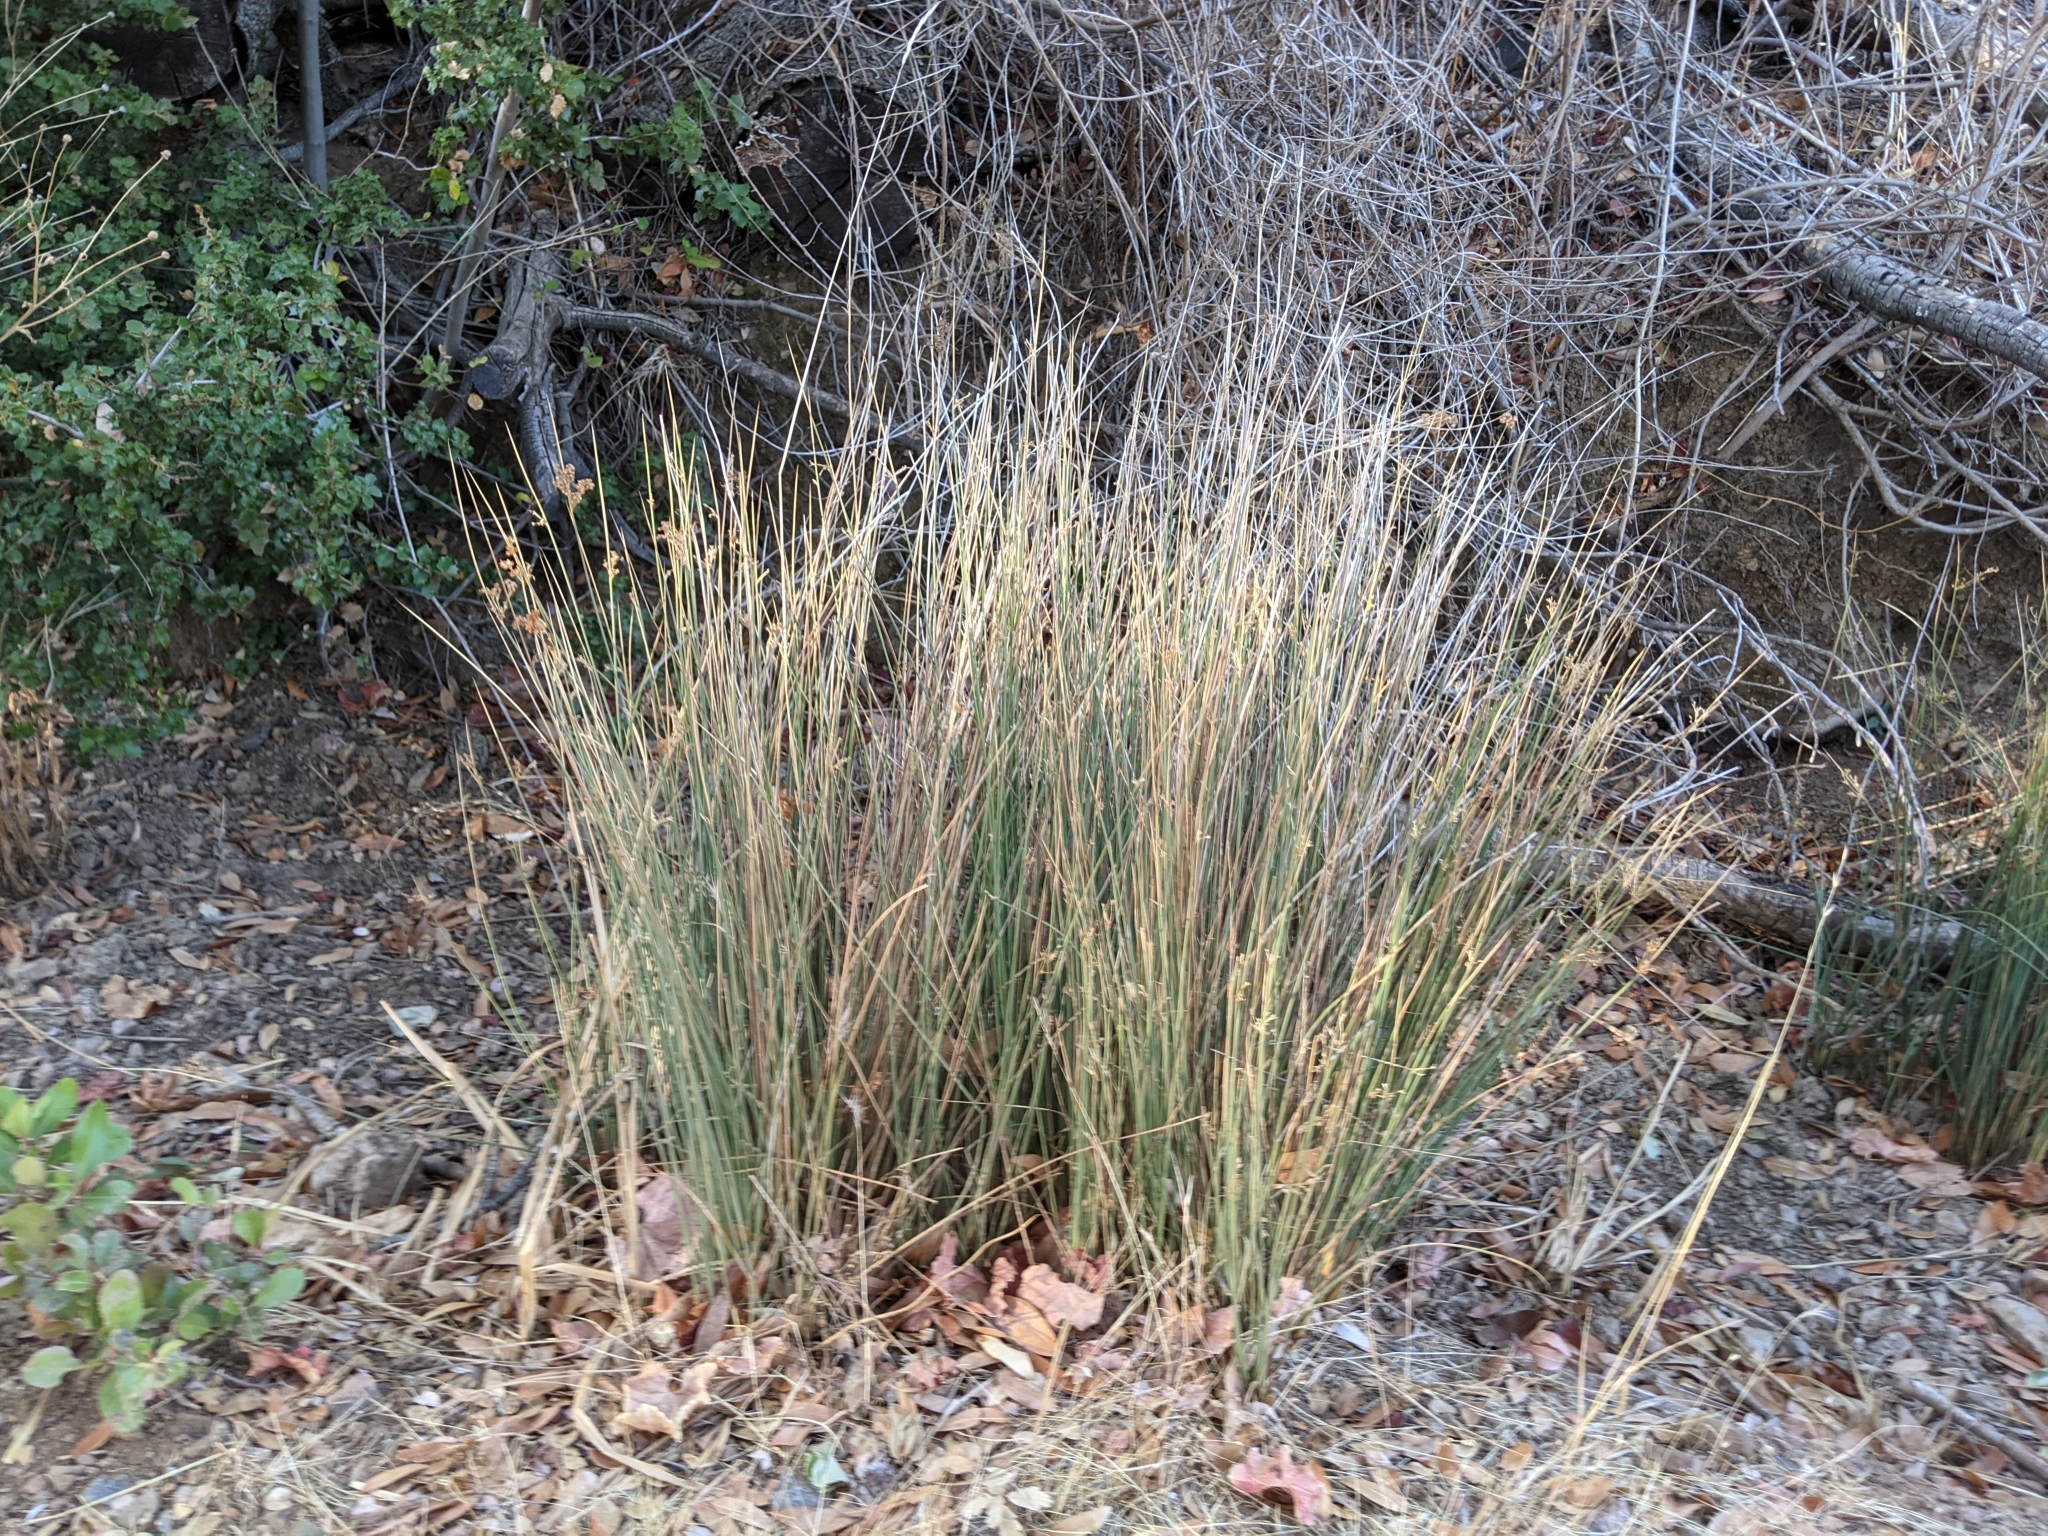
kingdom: Plantae
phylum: Tracheophyta
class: Liliopsida
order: Poales
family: Juncaceae
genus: Juncus
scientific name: Juncus patens
